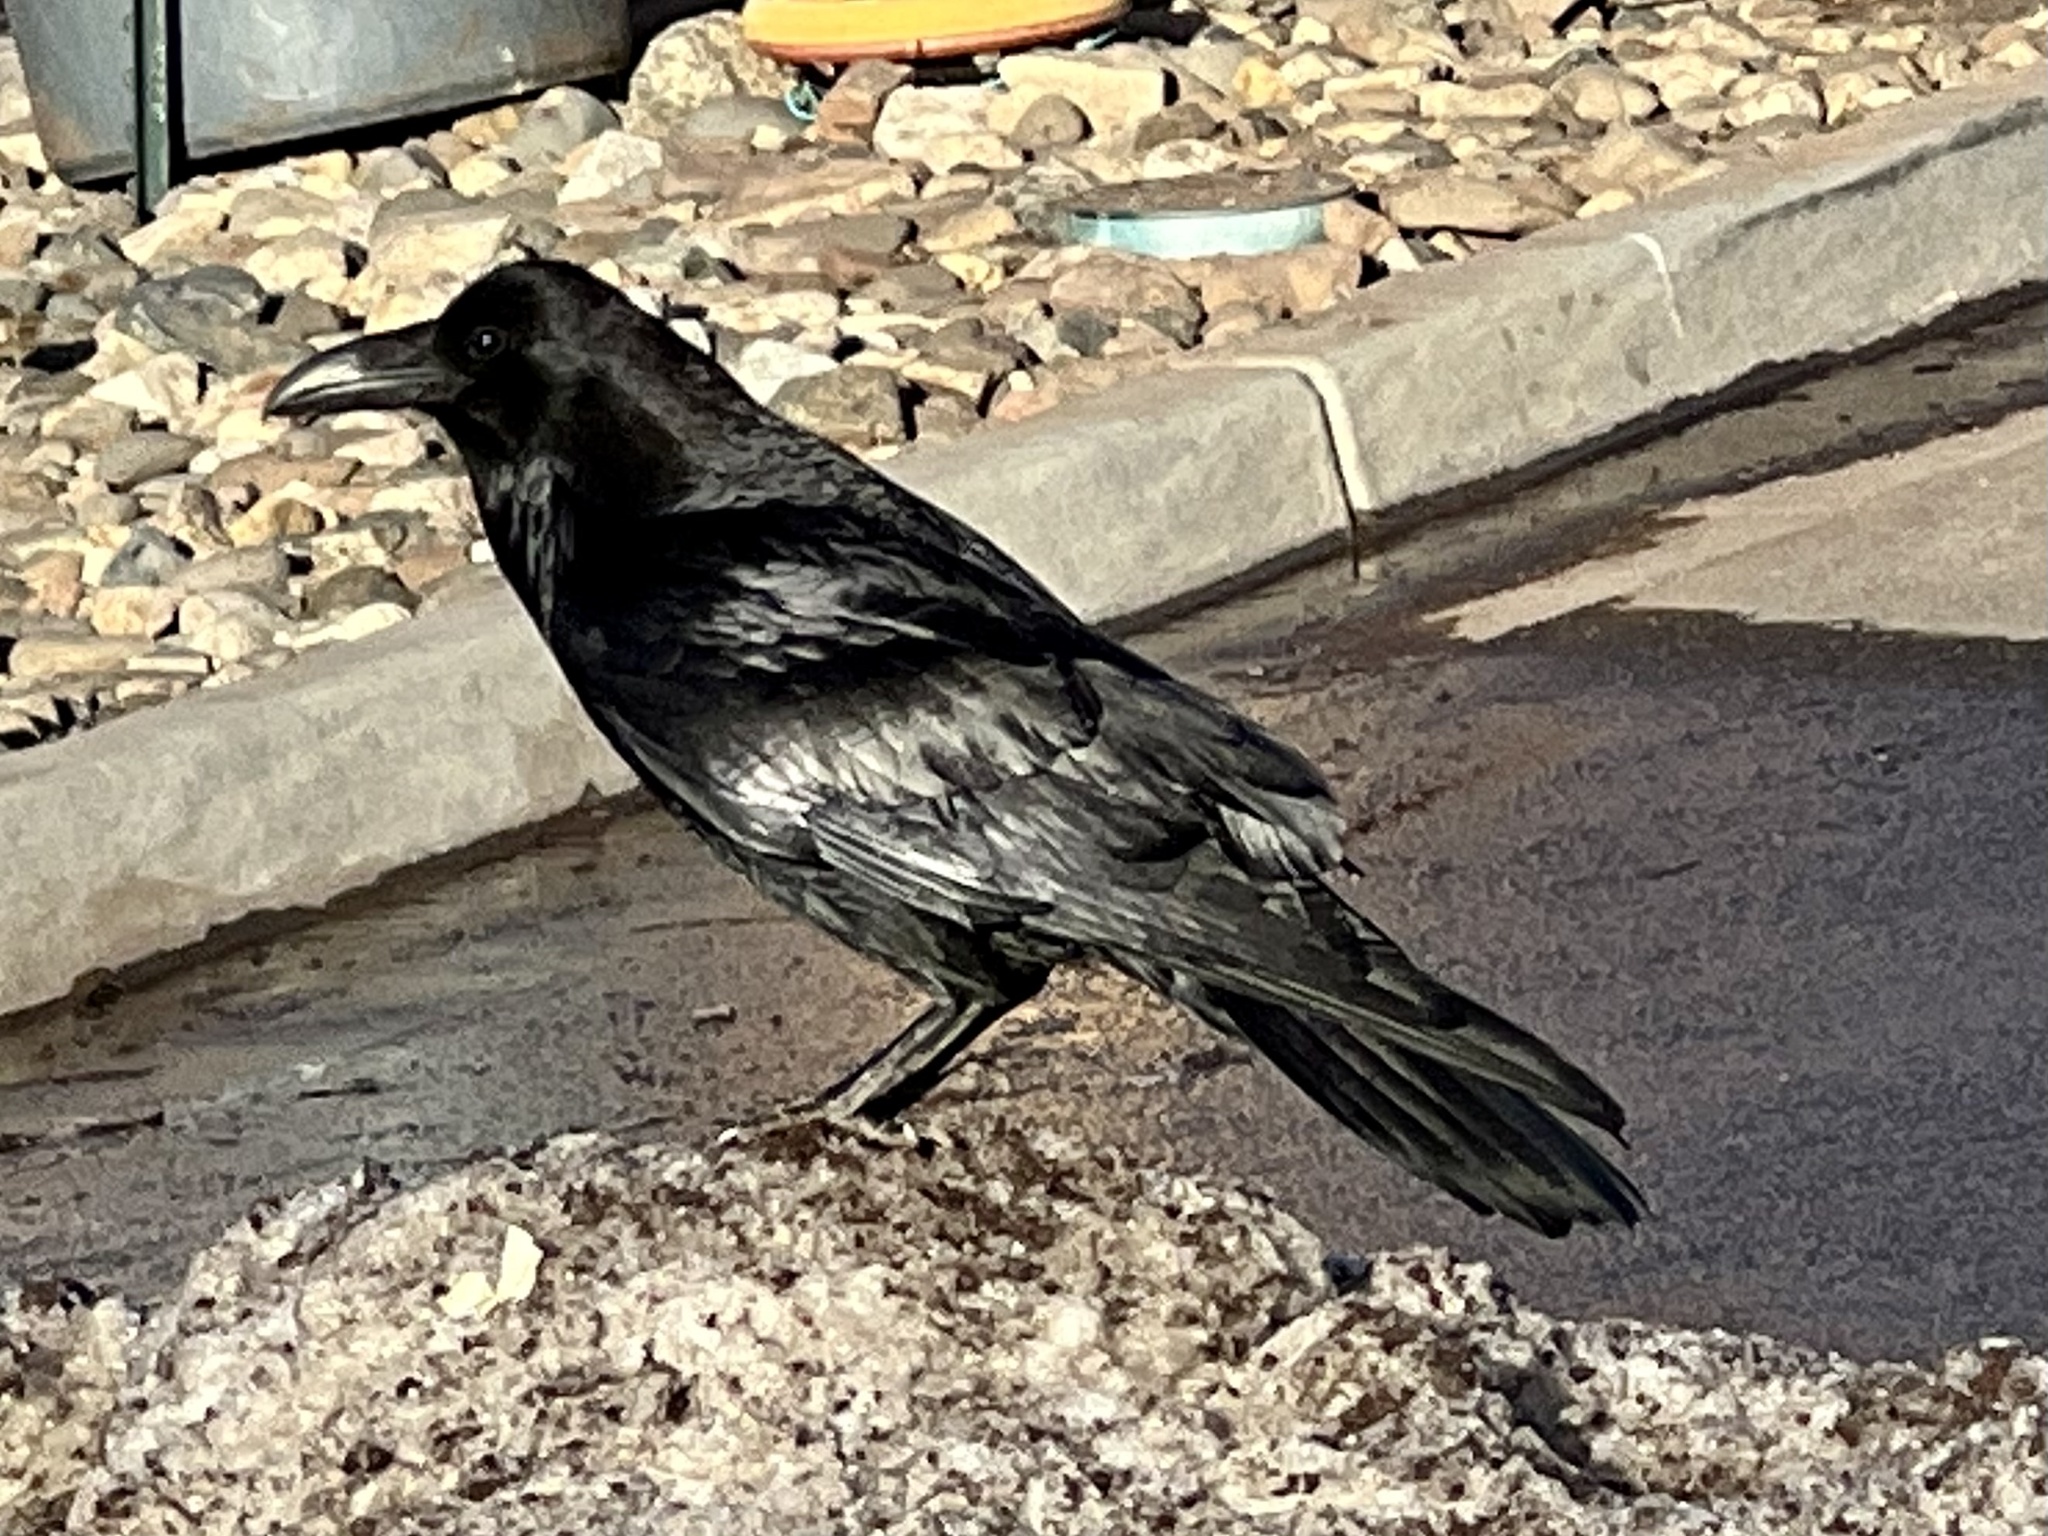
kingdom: Animalia
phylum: Chordata
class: Aves
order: Passeriformes
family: Corvidae
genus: Corvus
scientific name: Corvus corax
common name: Common raven
